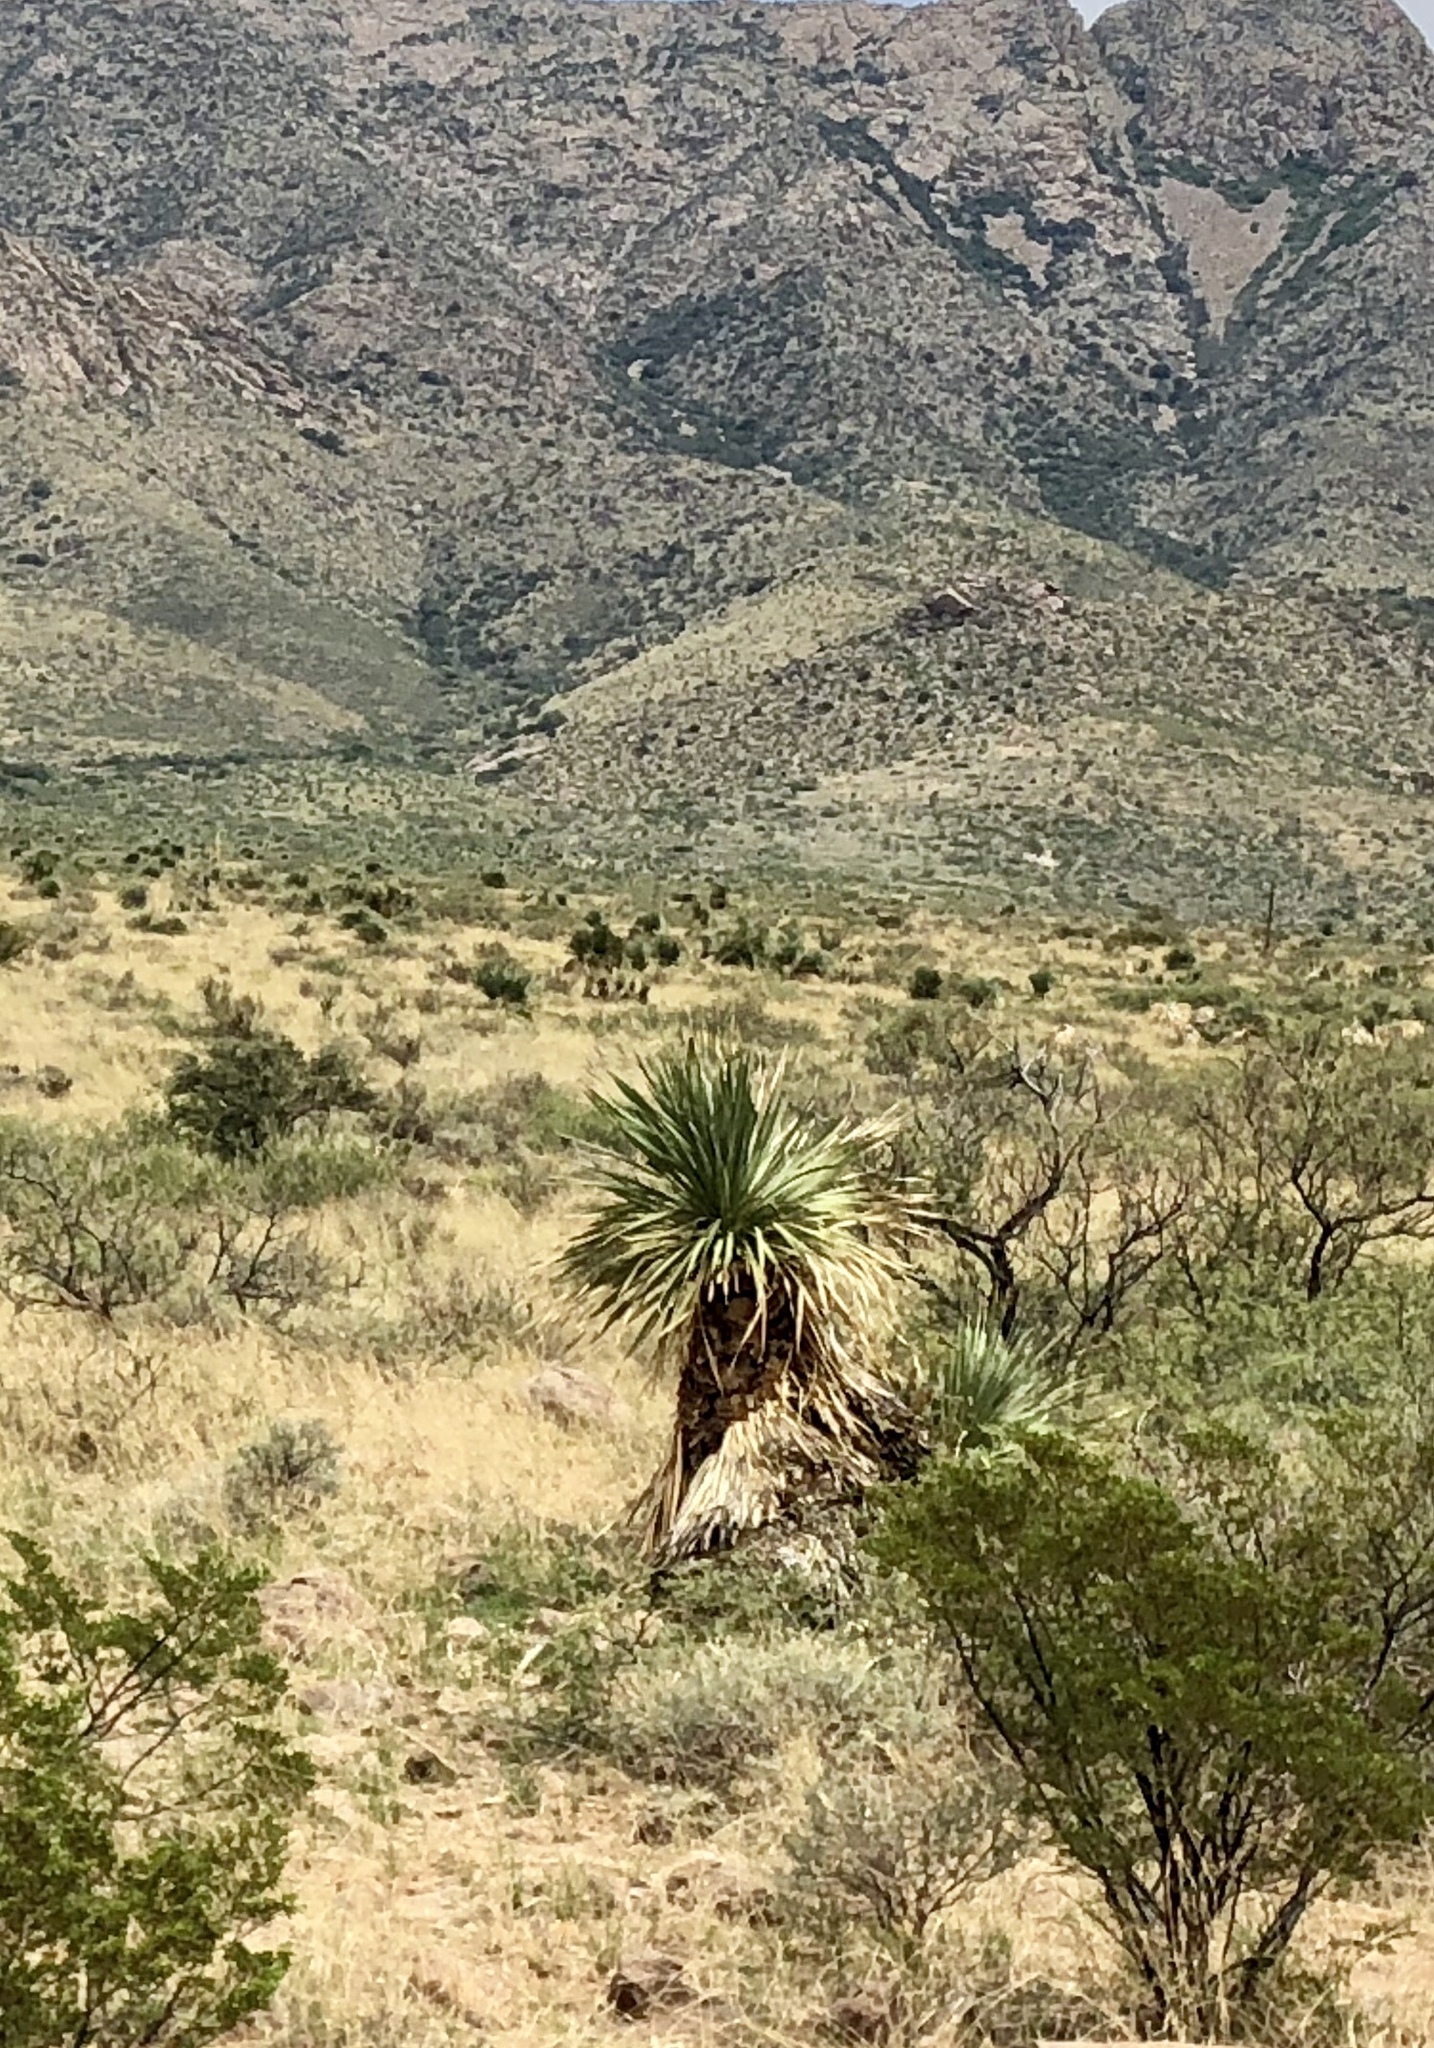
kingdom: Plantae
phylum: Tracheophyta
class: Liliopsida
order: Asparagales
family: Asparagaceae
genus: Yucca
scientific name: Yucca elata
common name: Palmella
